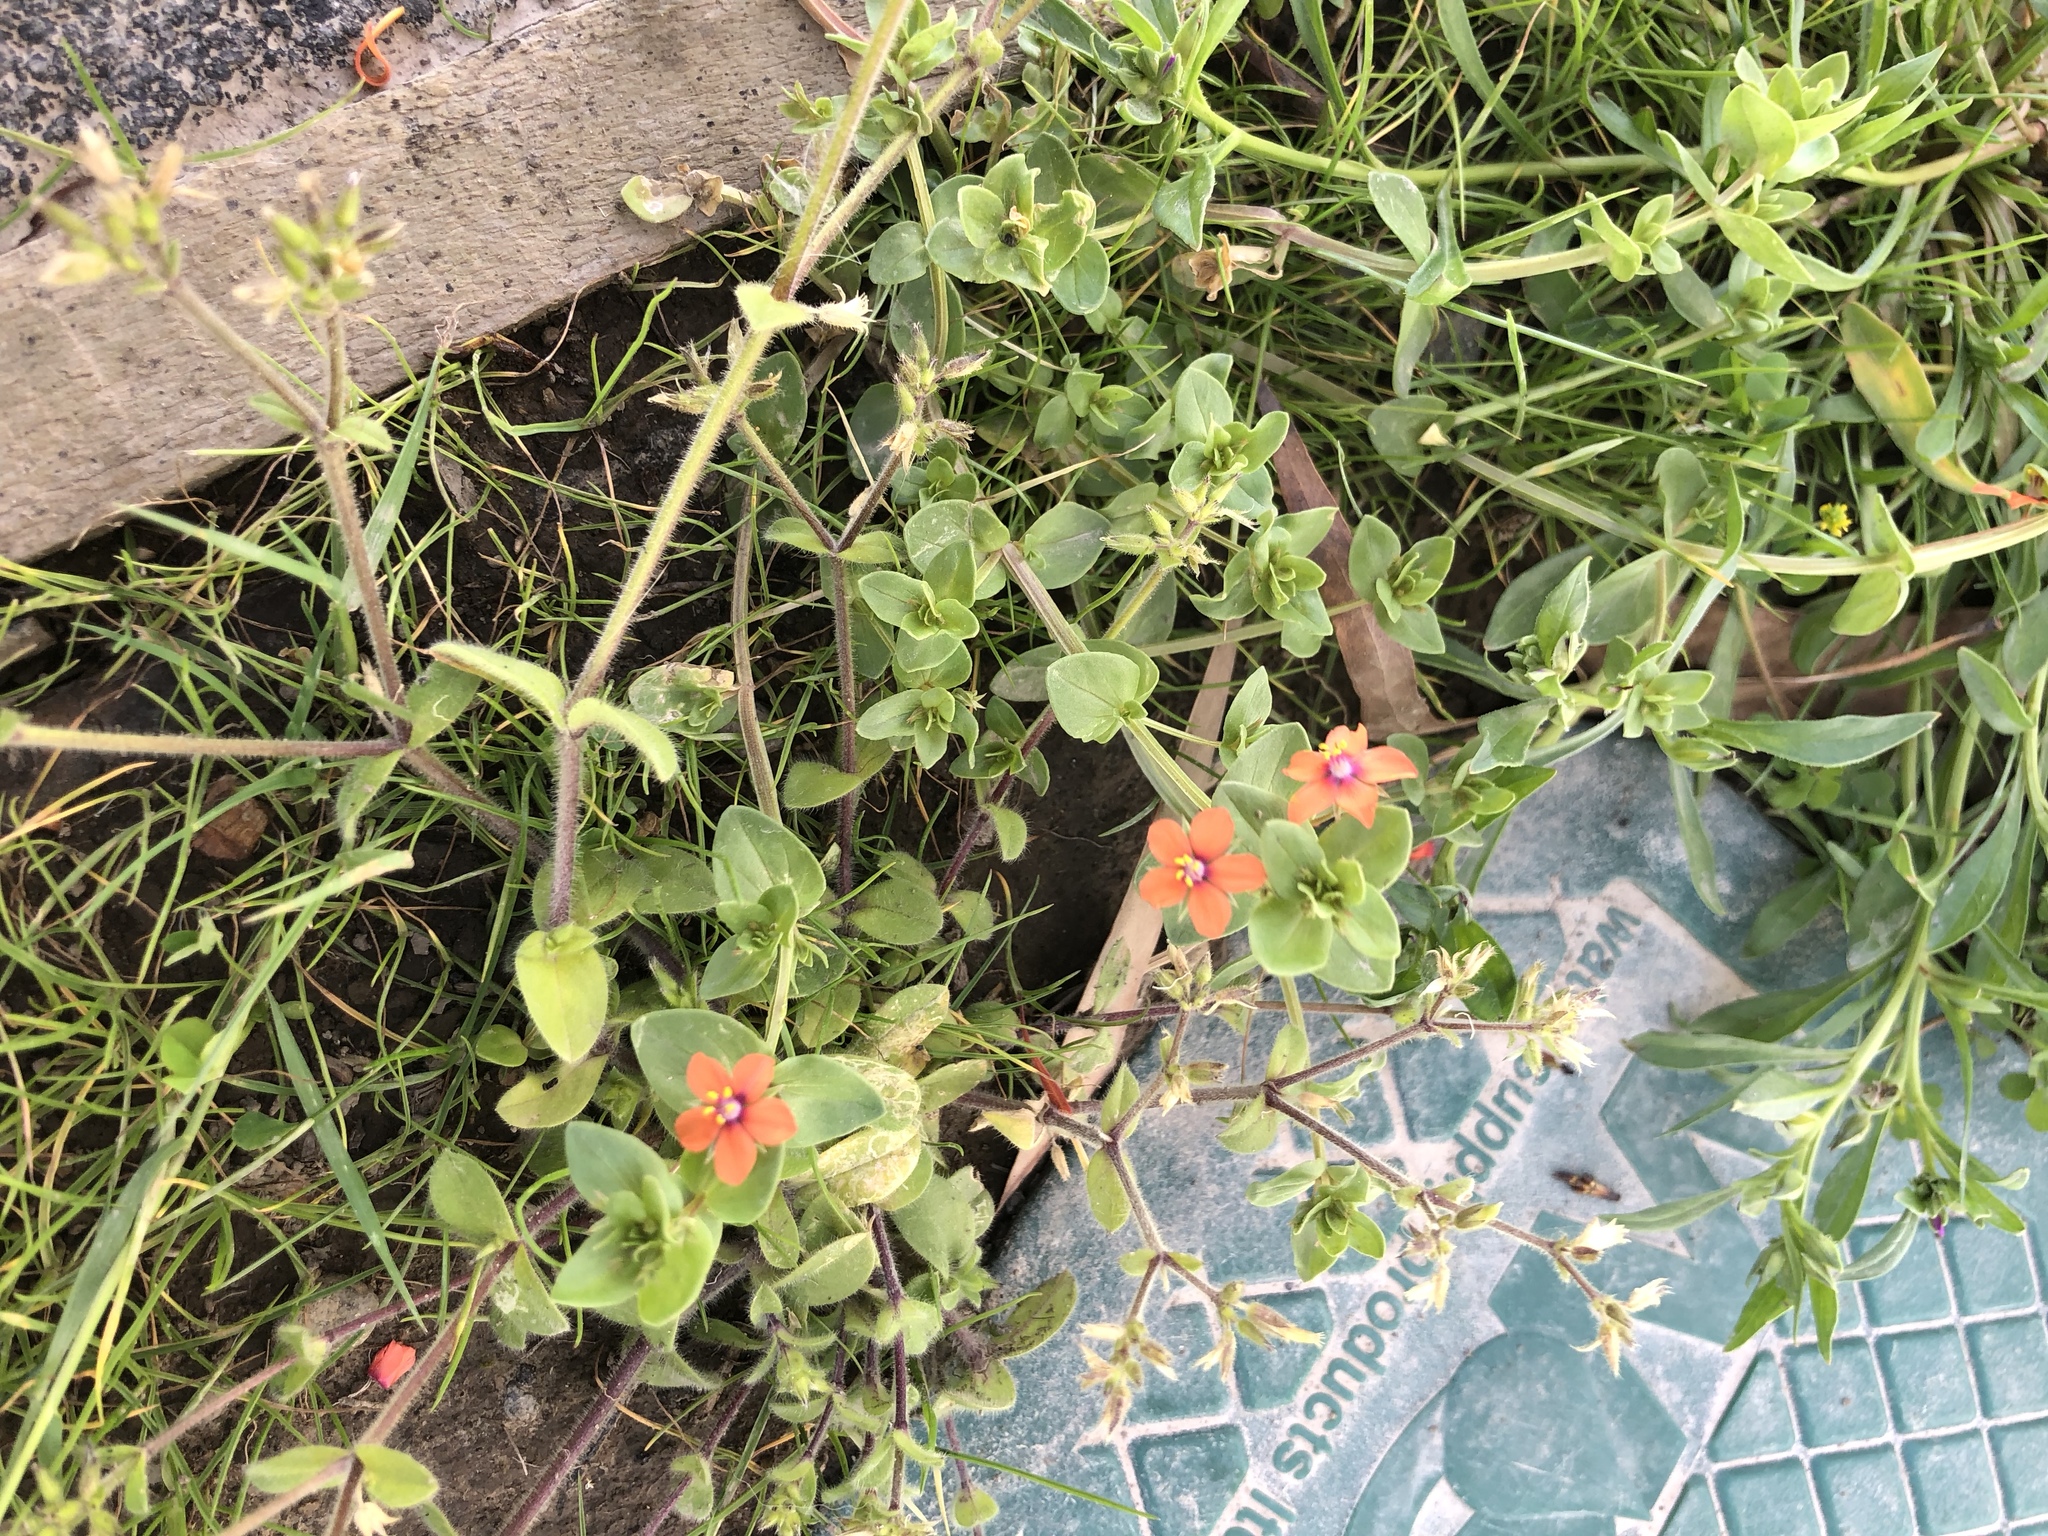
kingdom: Plantae
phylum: Tracheophyta
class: Magnoliopsida
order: Ericales
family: Primulaceae
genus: Lysimachia
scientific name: Lysimachia arvensis
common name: Scarlet pimpernel
